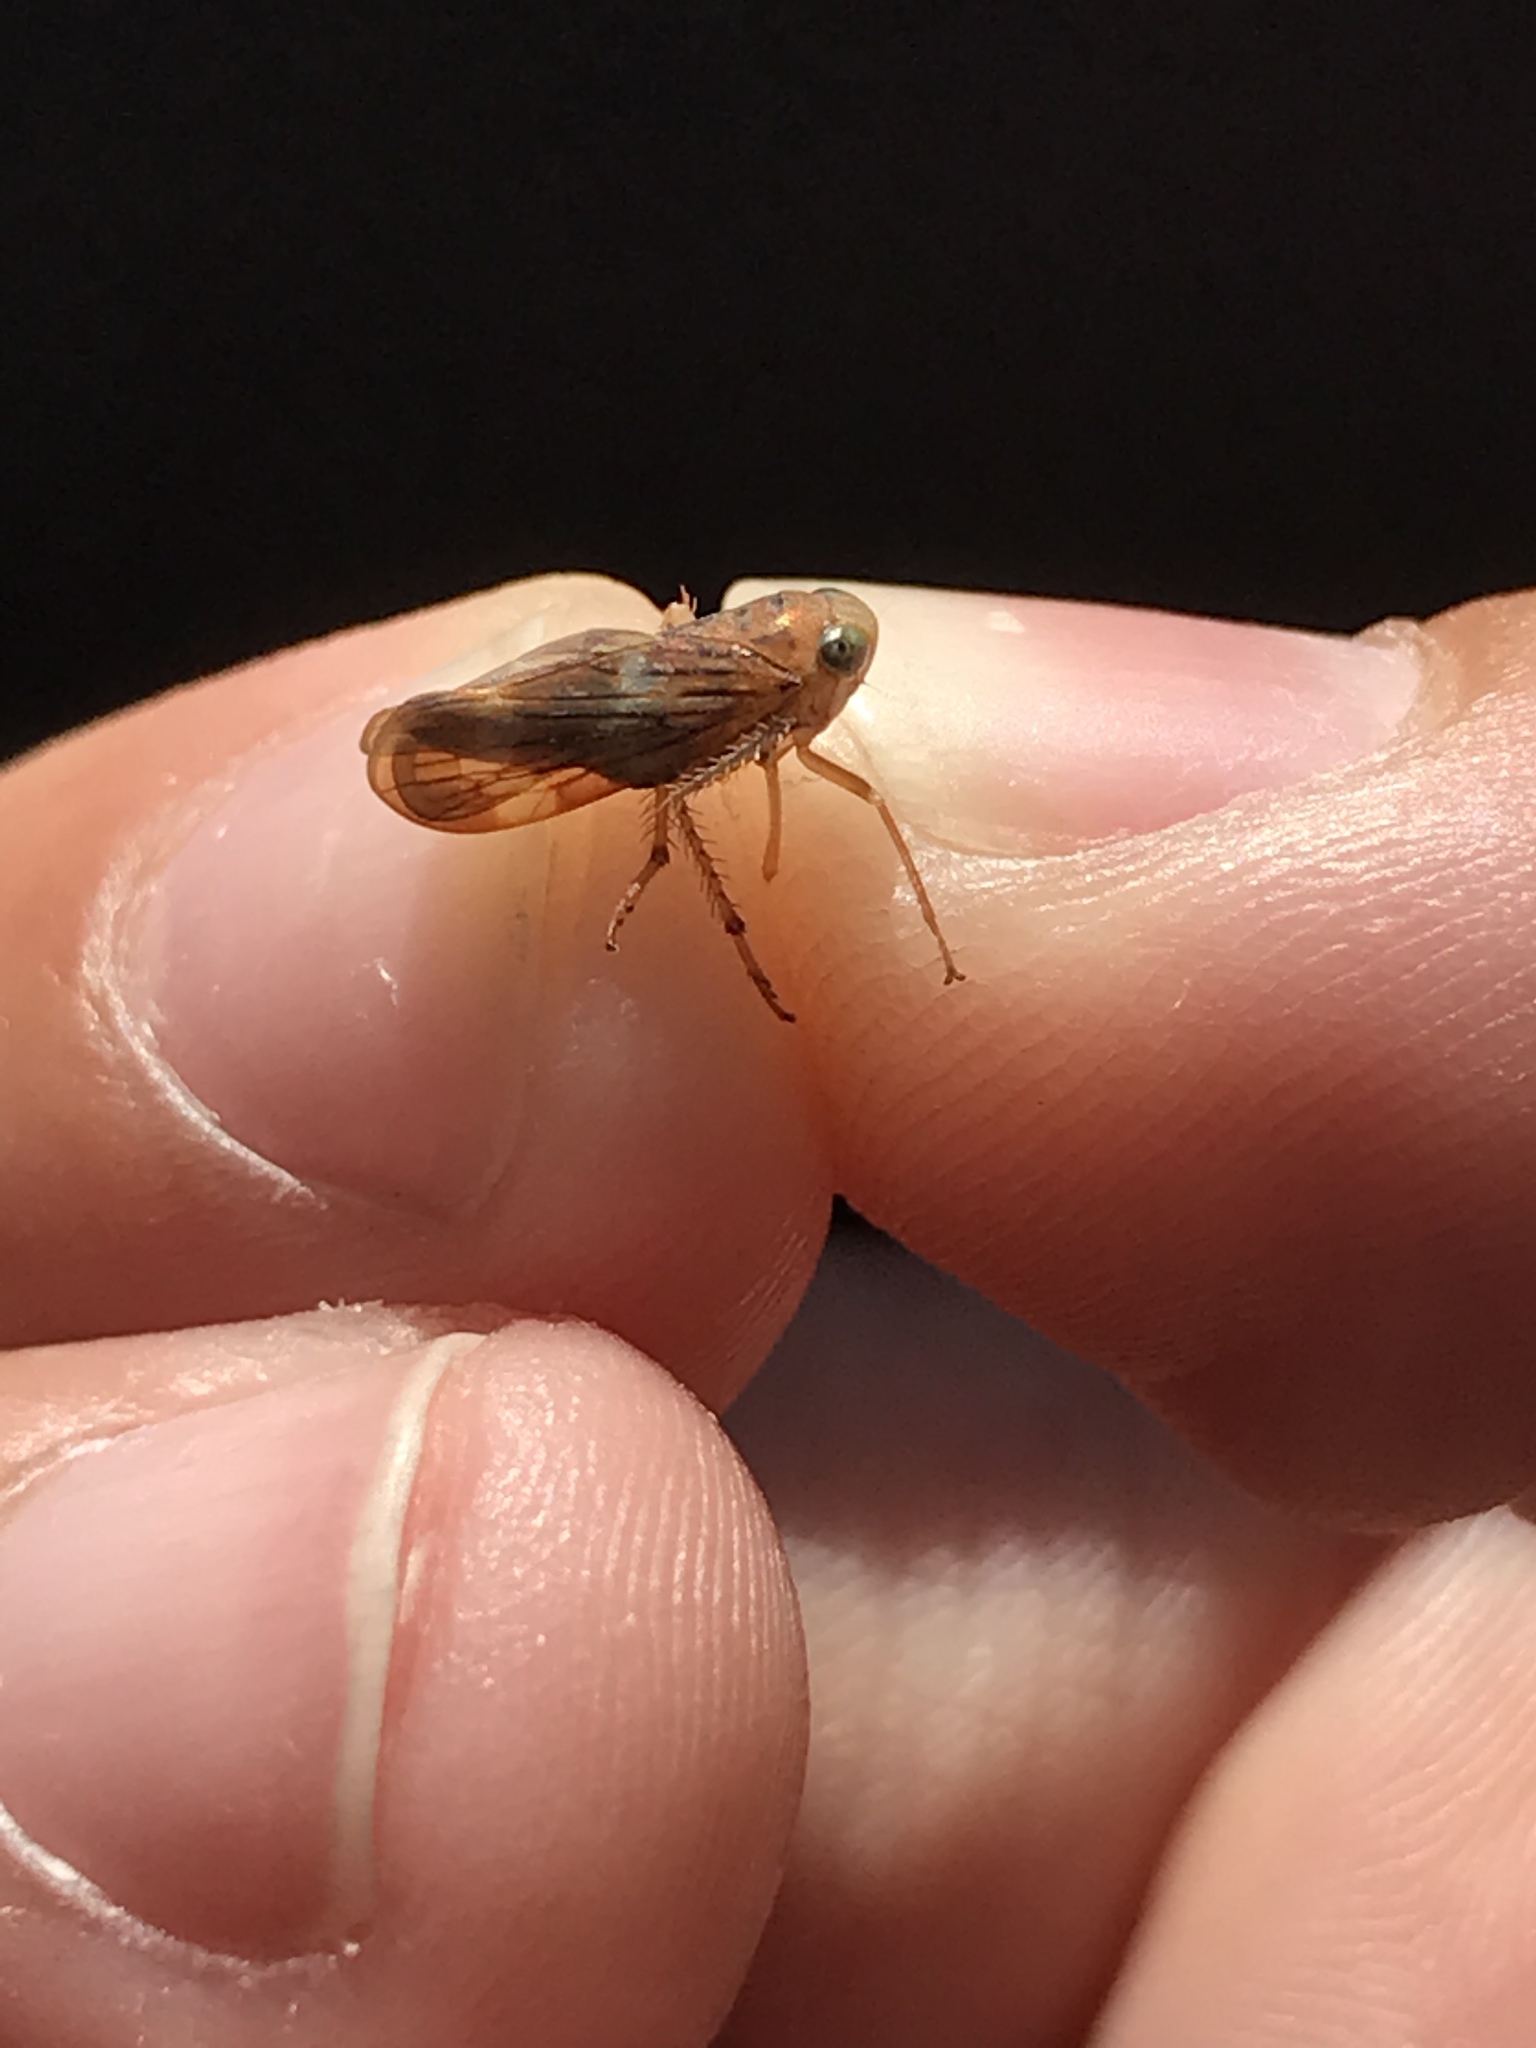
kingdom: Animalia
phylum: Arthropoda
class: Insecta
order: Hemiptera
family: Cicadellidae
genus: Jikradia
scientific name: Jikradia olitoria
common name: Coppery leafhopper
